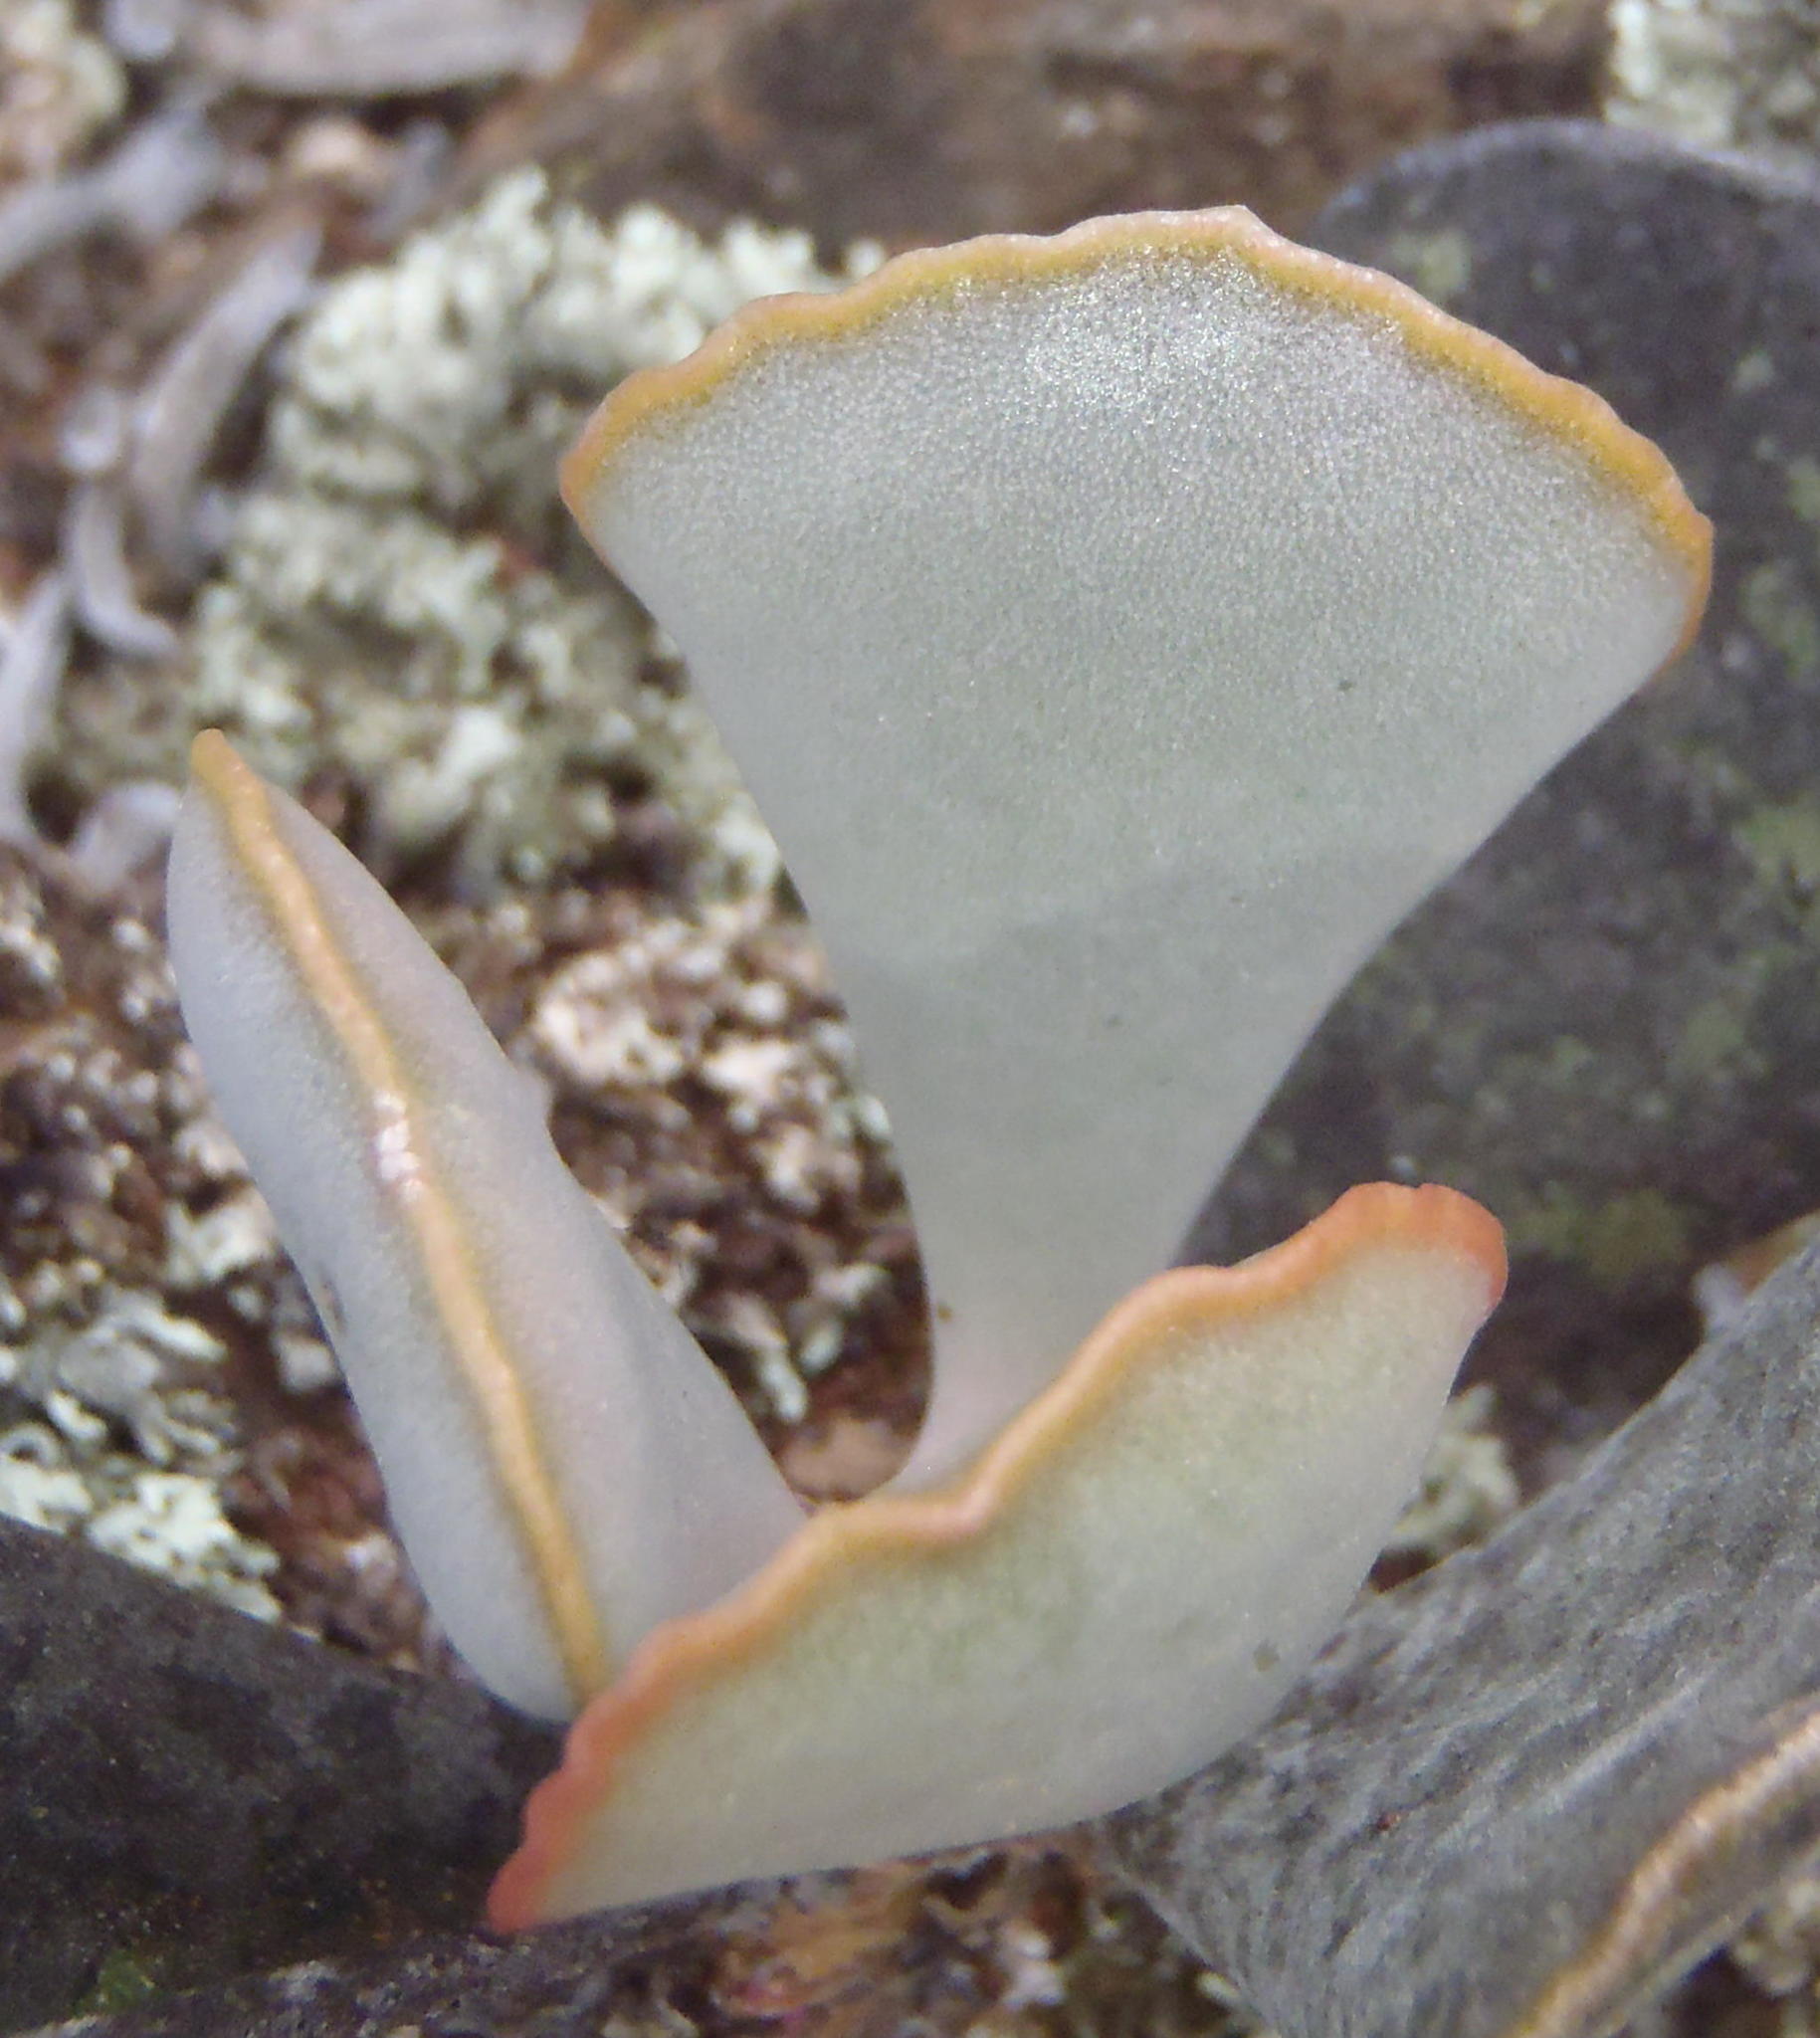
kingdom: Plantae
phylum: Tracheophyta
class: Magnoliopsida
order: Saxifragales
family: Crassulaceae
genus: Adromischus
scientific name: Adromischus triflorus
